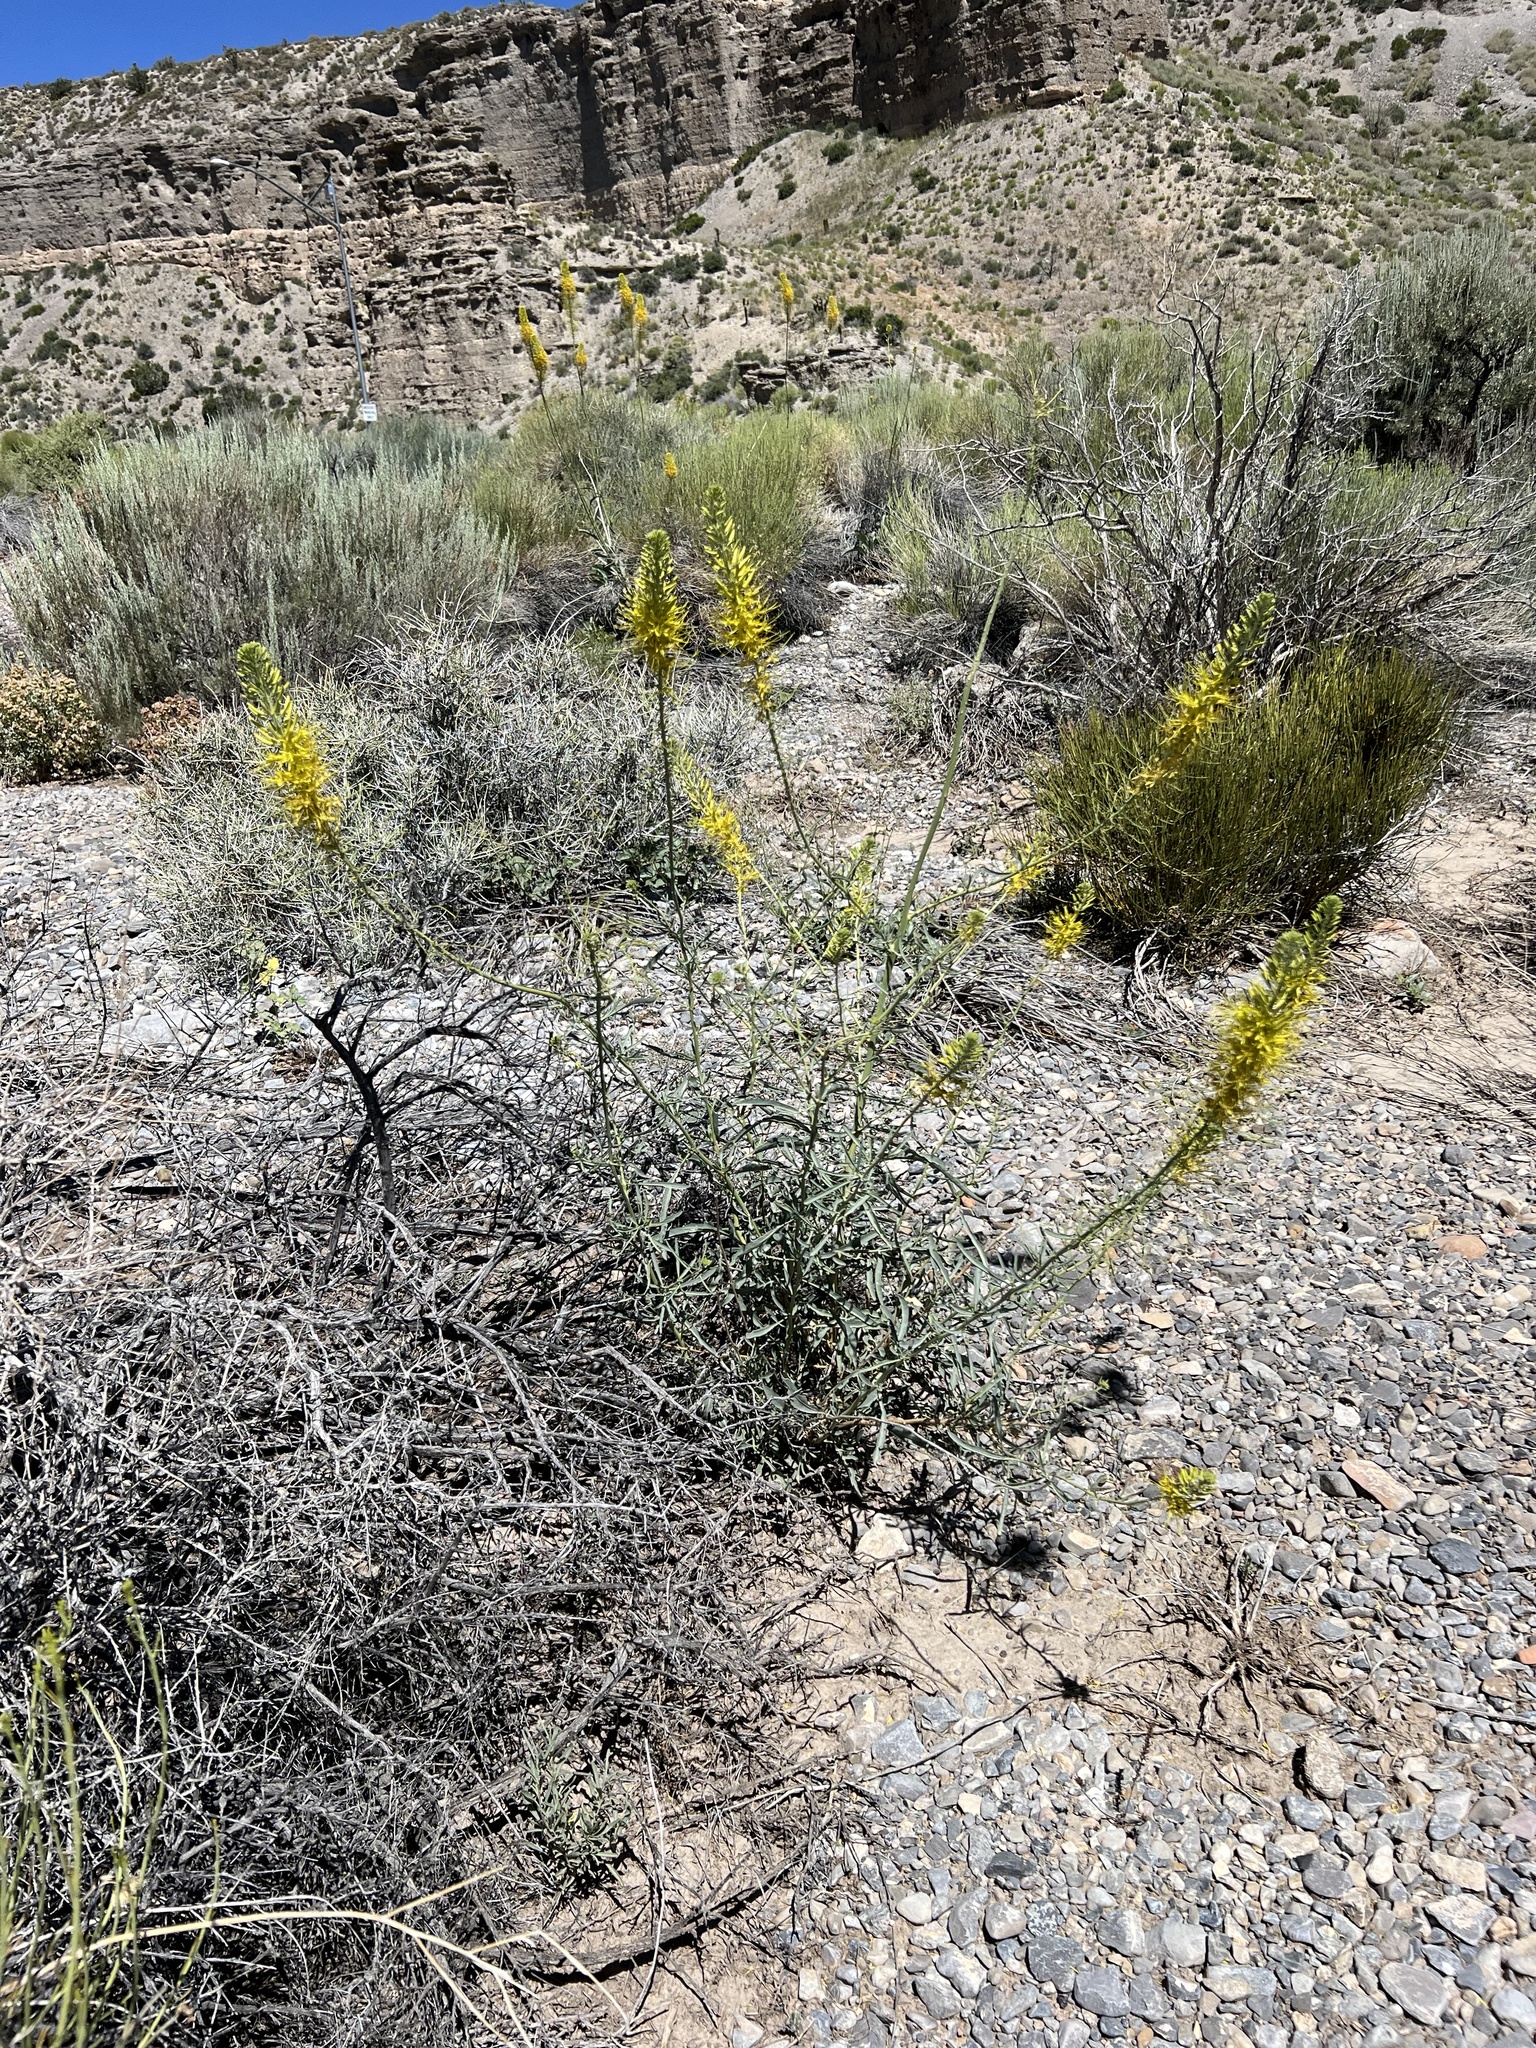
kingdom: Plantae
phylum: Tracheophyta
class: Magnoliopsida
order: Brassicales
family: Brassicaceae
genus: Stanleya
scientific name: Stanleya pinnata
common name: Prince's-plume
